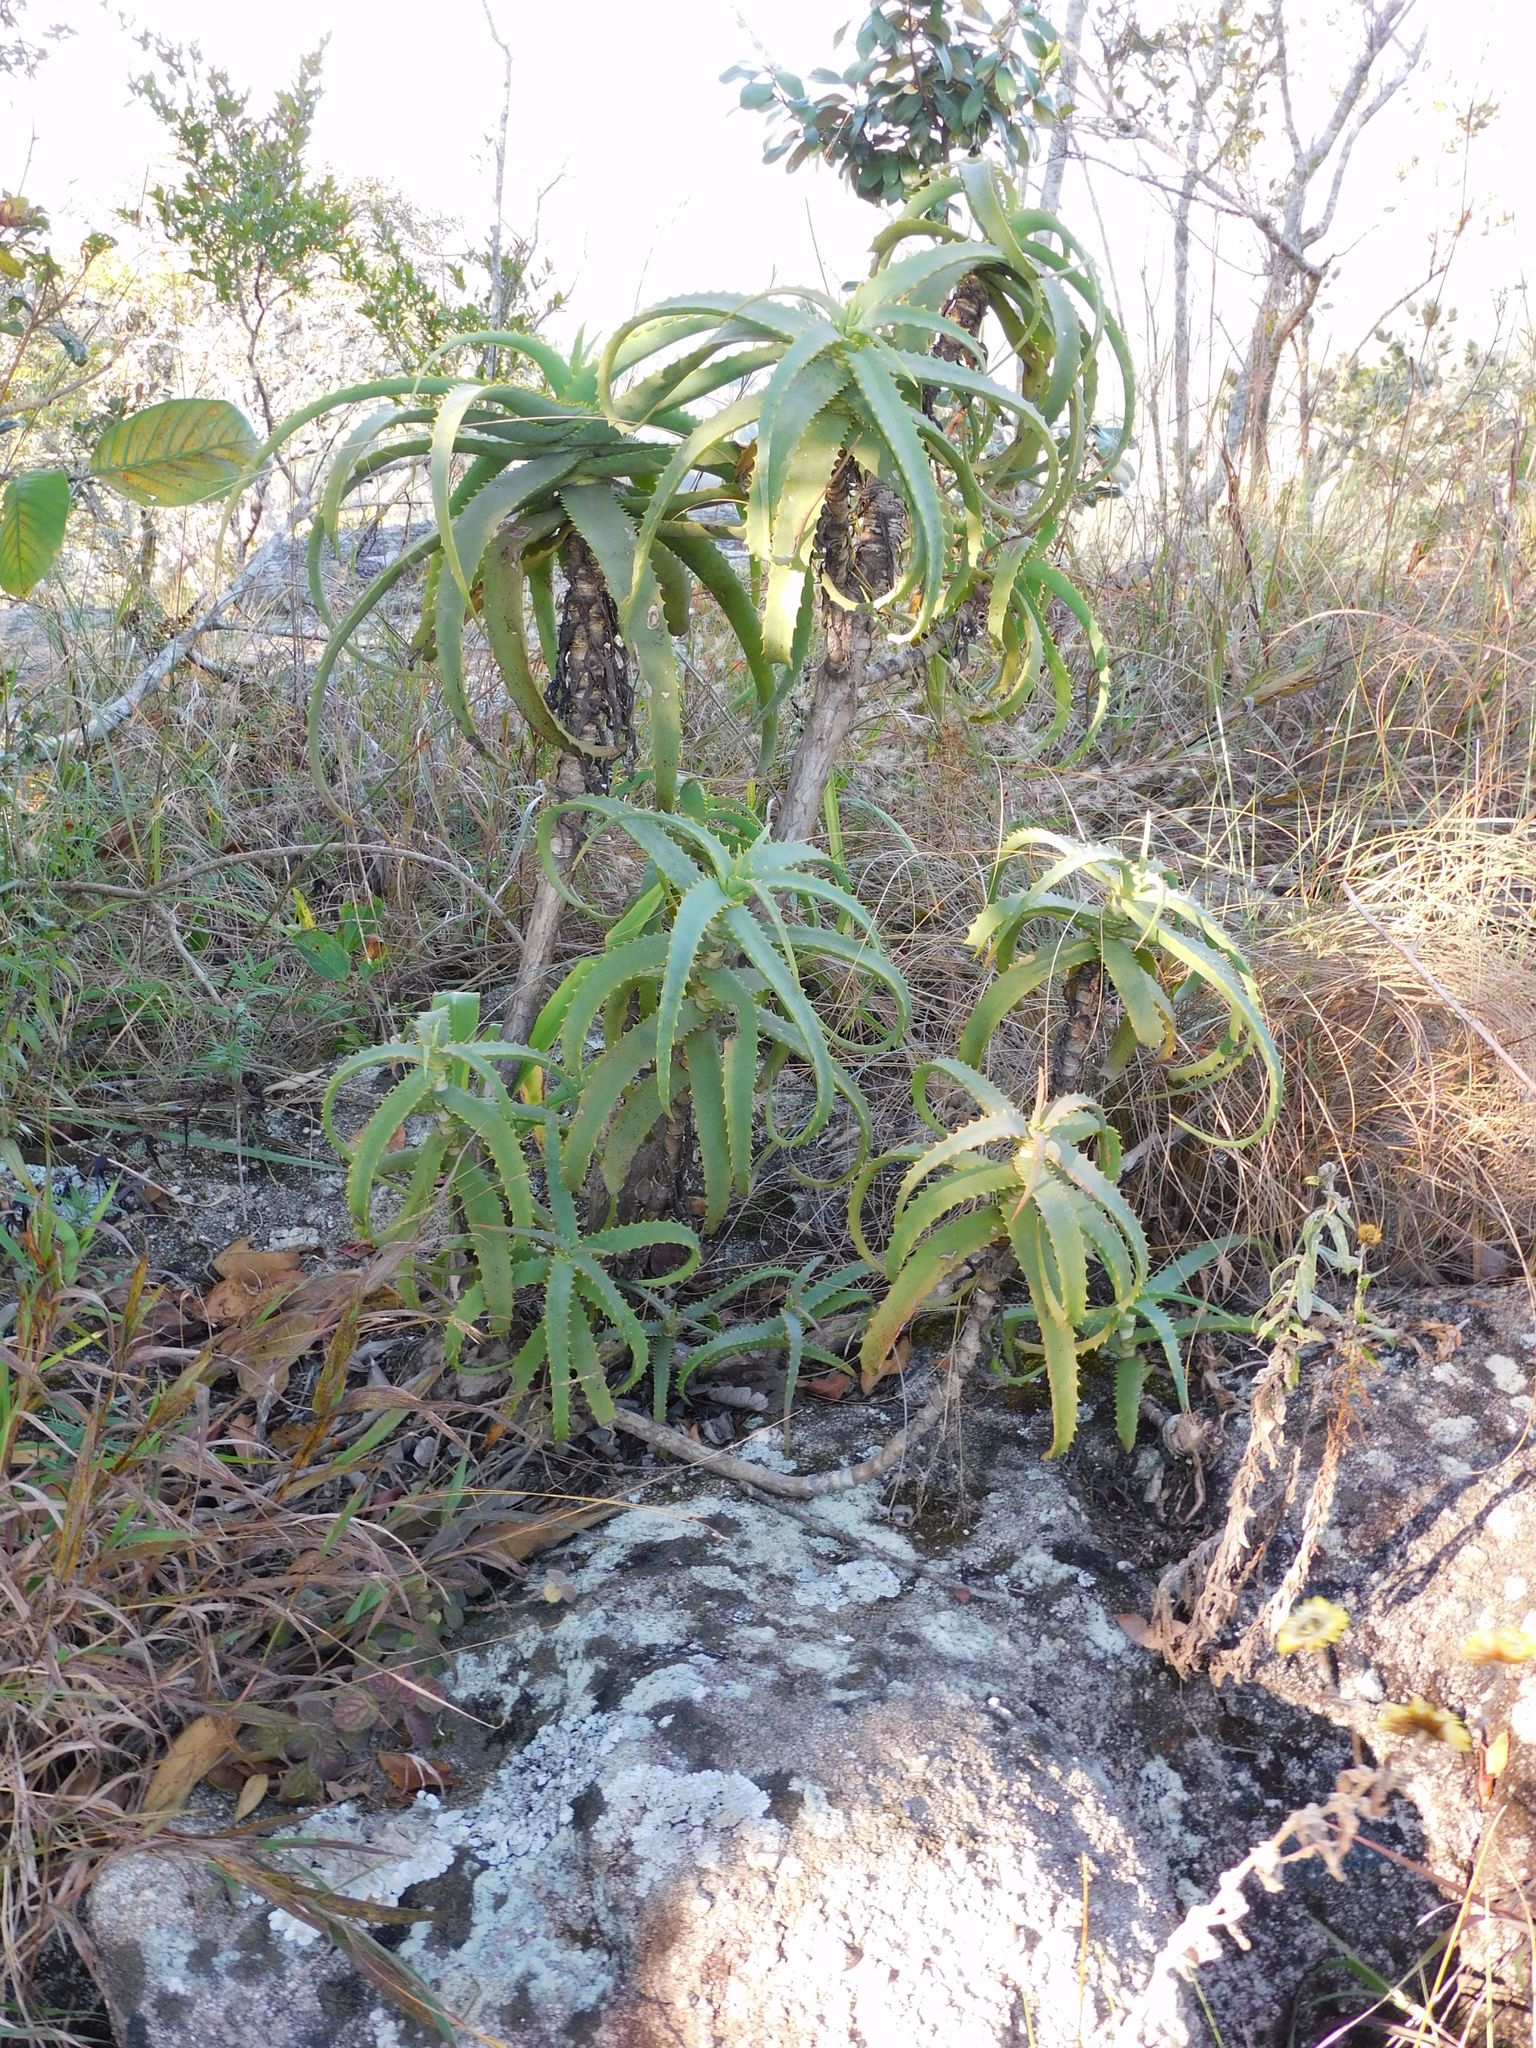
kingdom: Plantae
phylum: Tracheophyta
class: Liliopsida
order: Asparagales
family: Asphodelaceae
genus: Aloe
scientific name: Aloe arborescens
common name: Candelabra aloe
